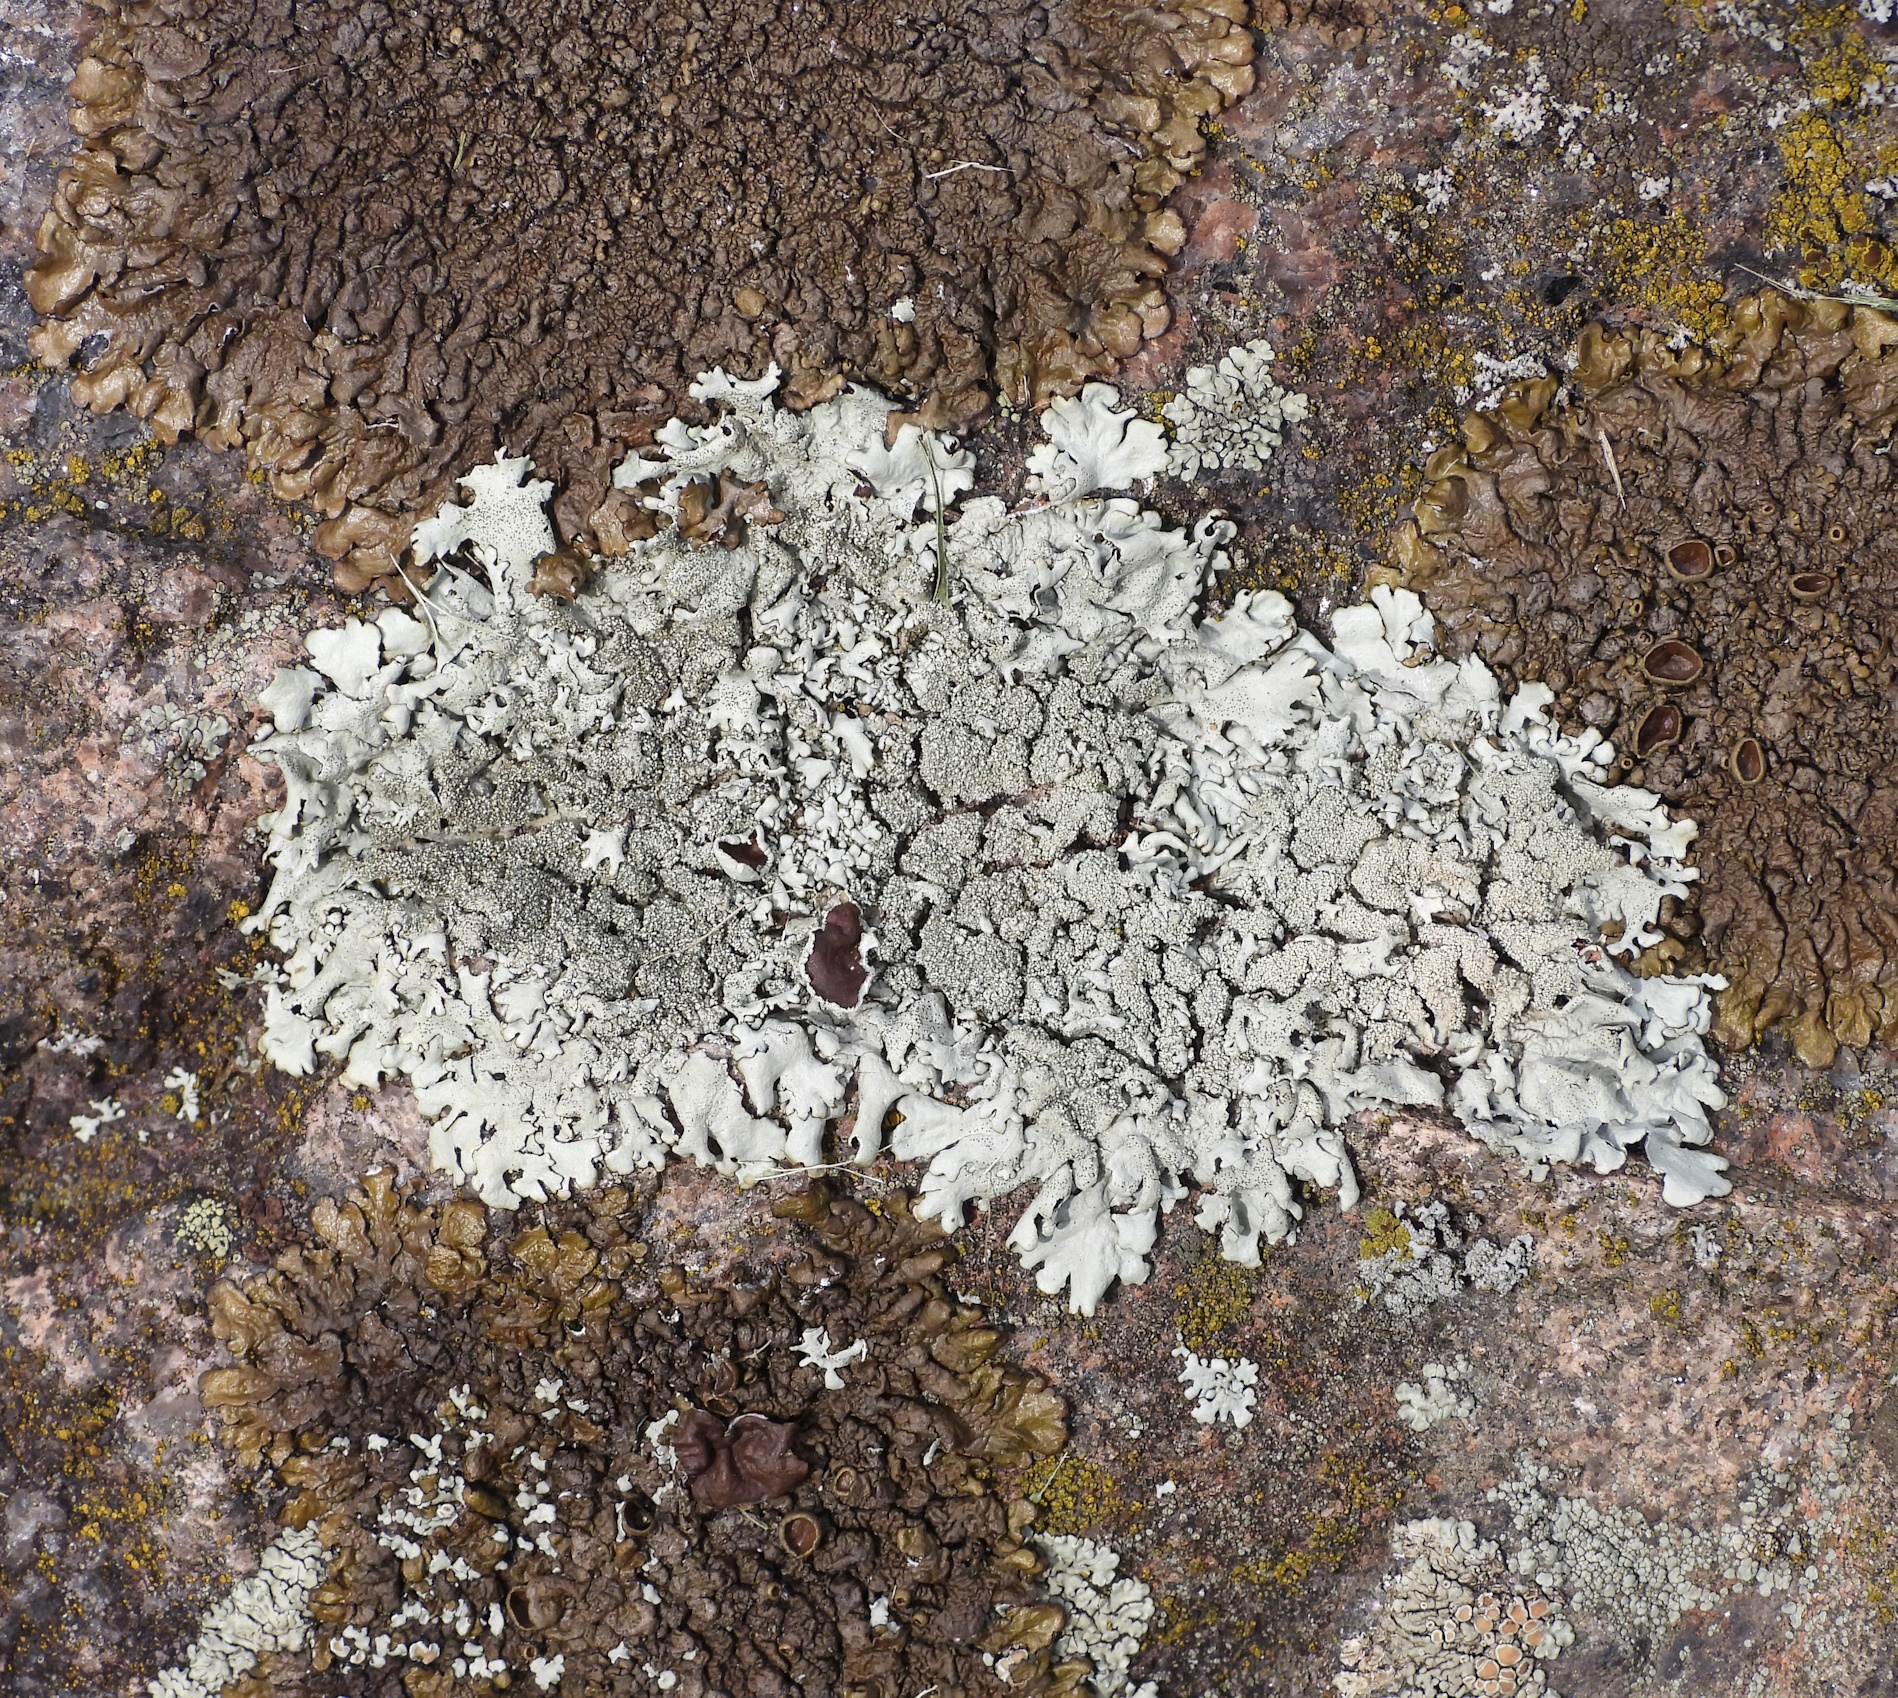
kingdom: Fungi
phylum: Ascomycota
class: Lecanoromycetes
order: Lecanorales
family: Parmeliaceae
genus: Xanthoparmelia
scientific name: Xanthoparmelia conspersa
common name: Peppered rock shield
